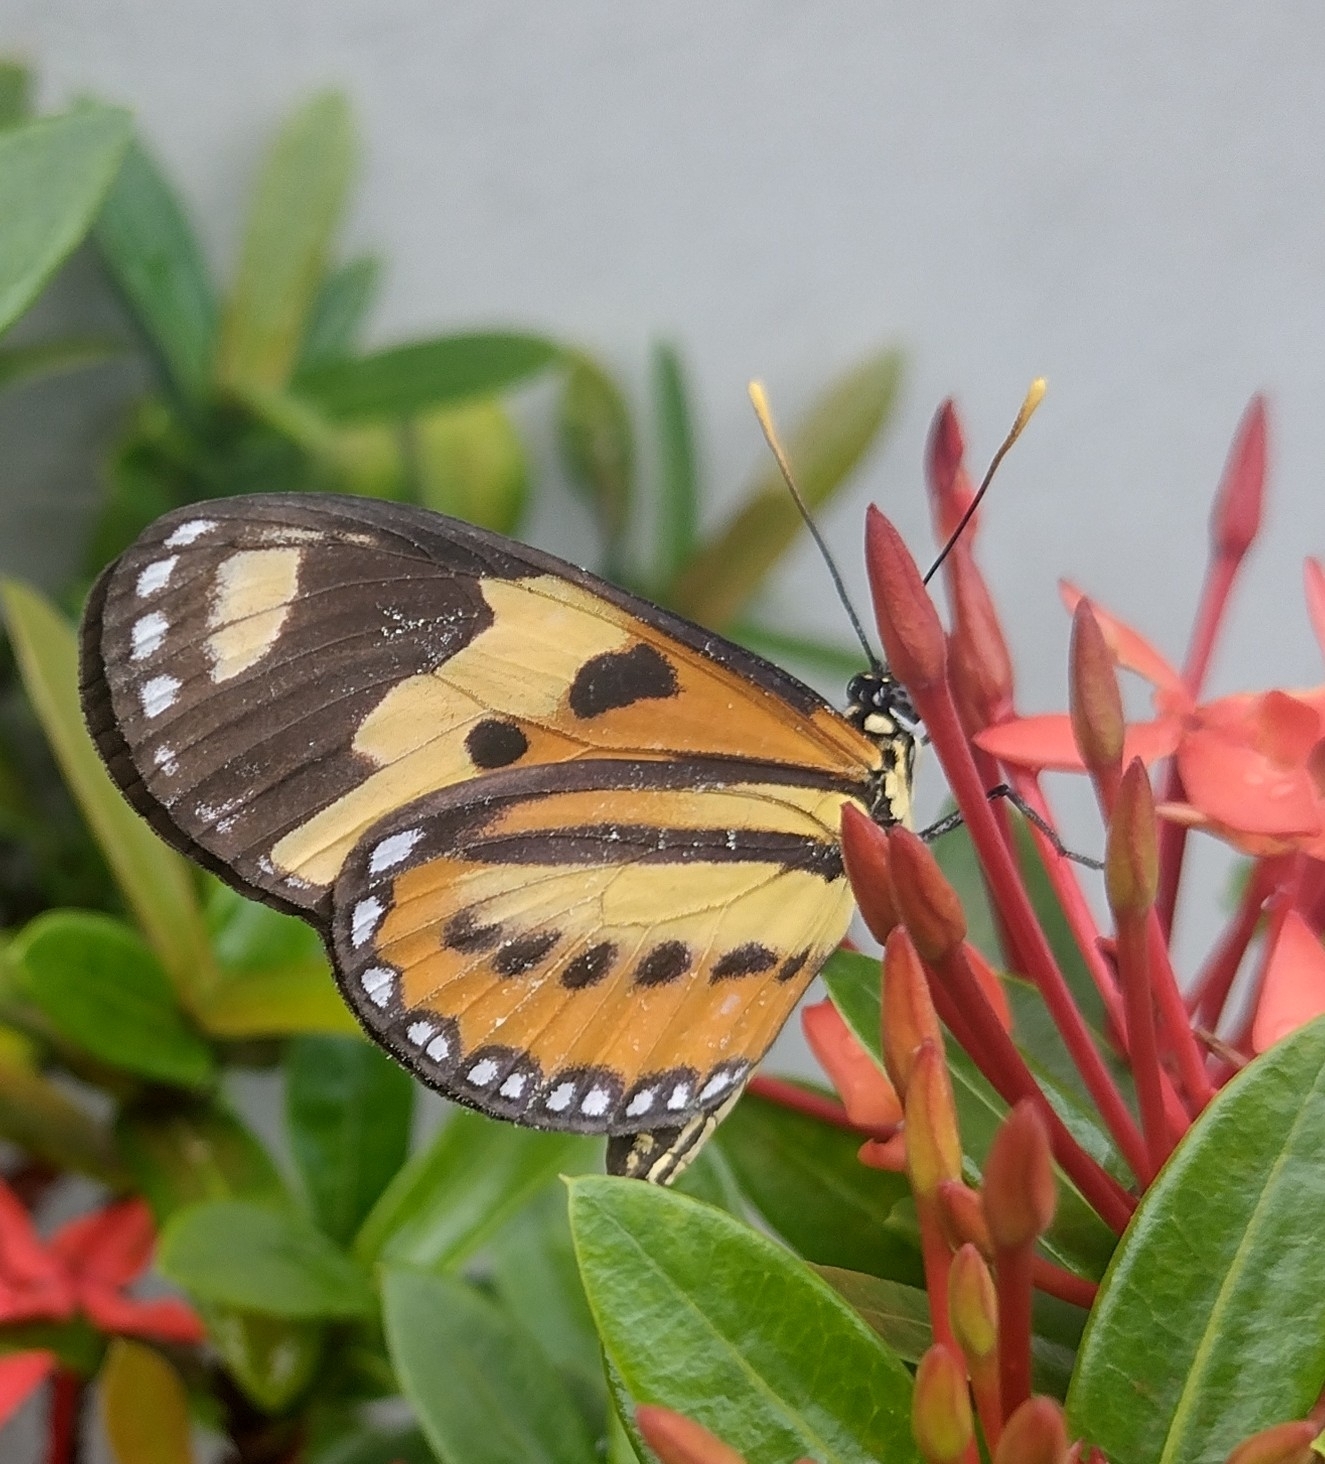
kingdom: Animalia
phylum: Arthropoda
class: Insecta
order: Lepidoptera
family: Nymphalidae
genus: Mechanitis
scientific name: Mechanitis polymnia
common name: Disturbed tigerwing
